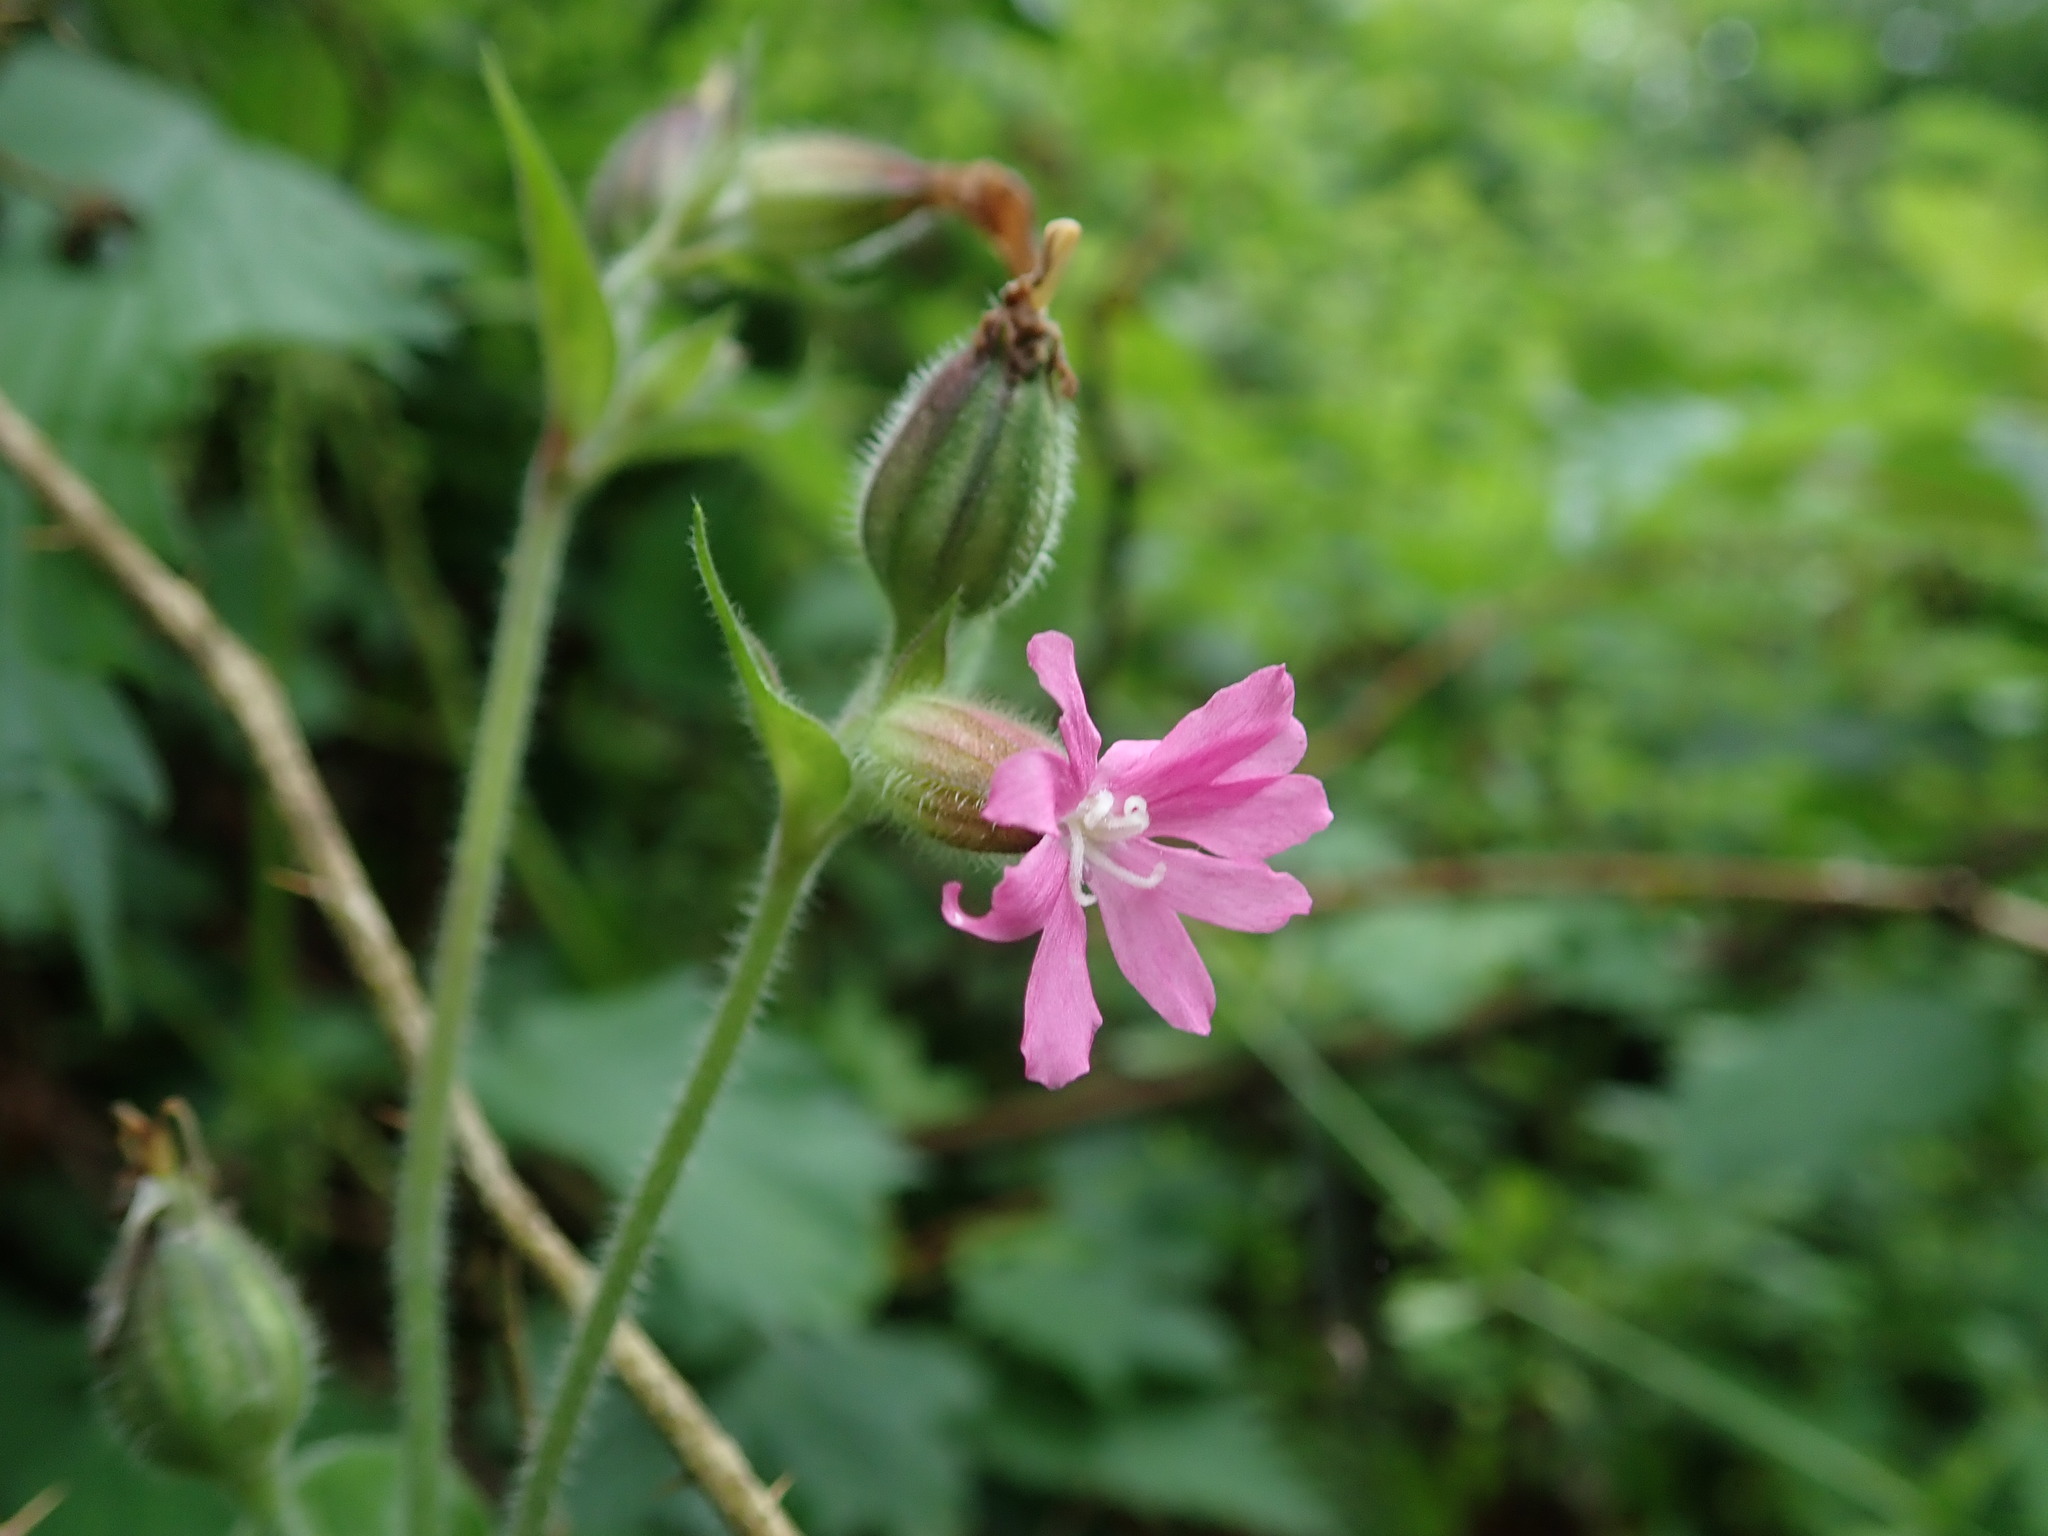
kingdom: Plantae
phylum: Tracheophyta
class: Magnoliopsida
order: Caryophyllales
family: Caryophyllaceae
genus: Silene
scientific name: Silene dioica
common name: Red campion
